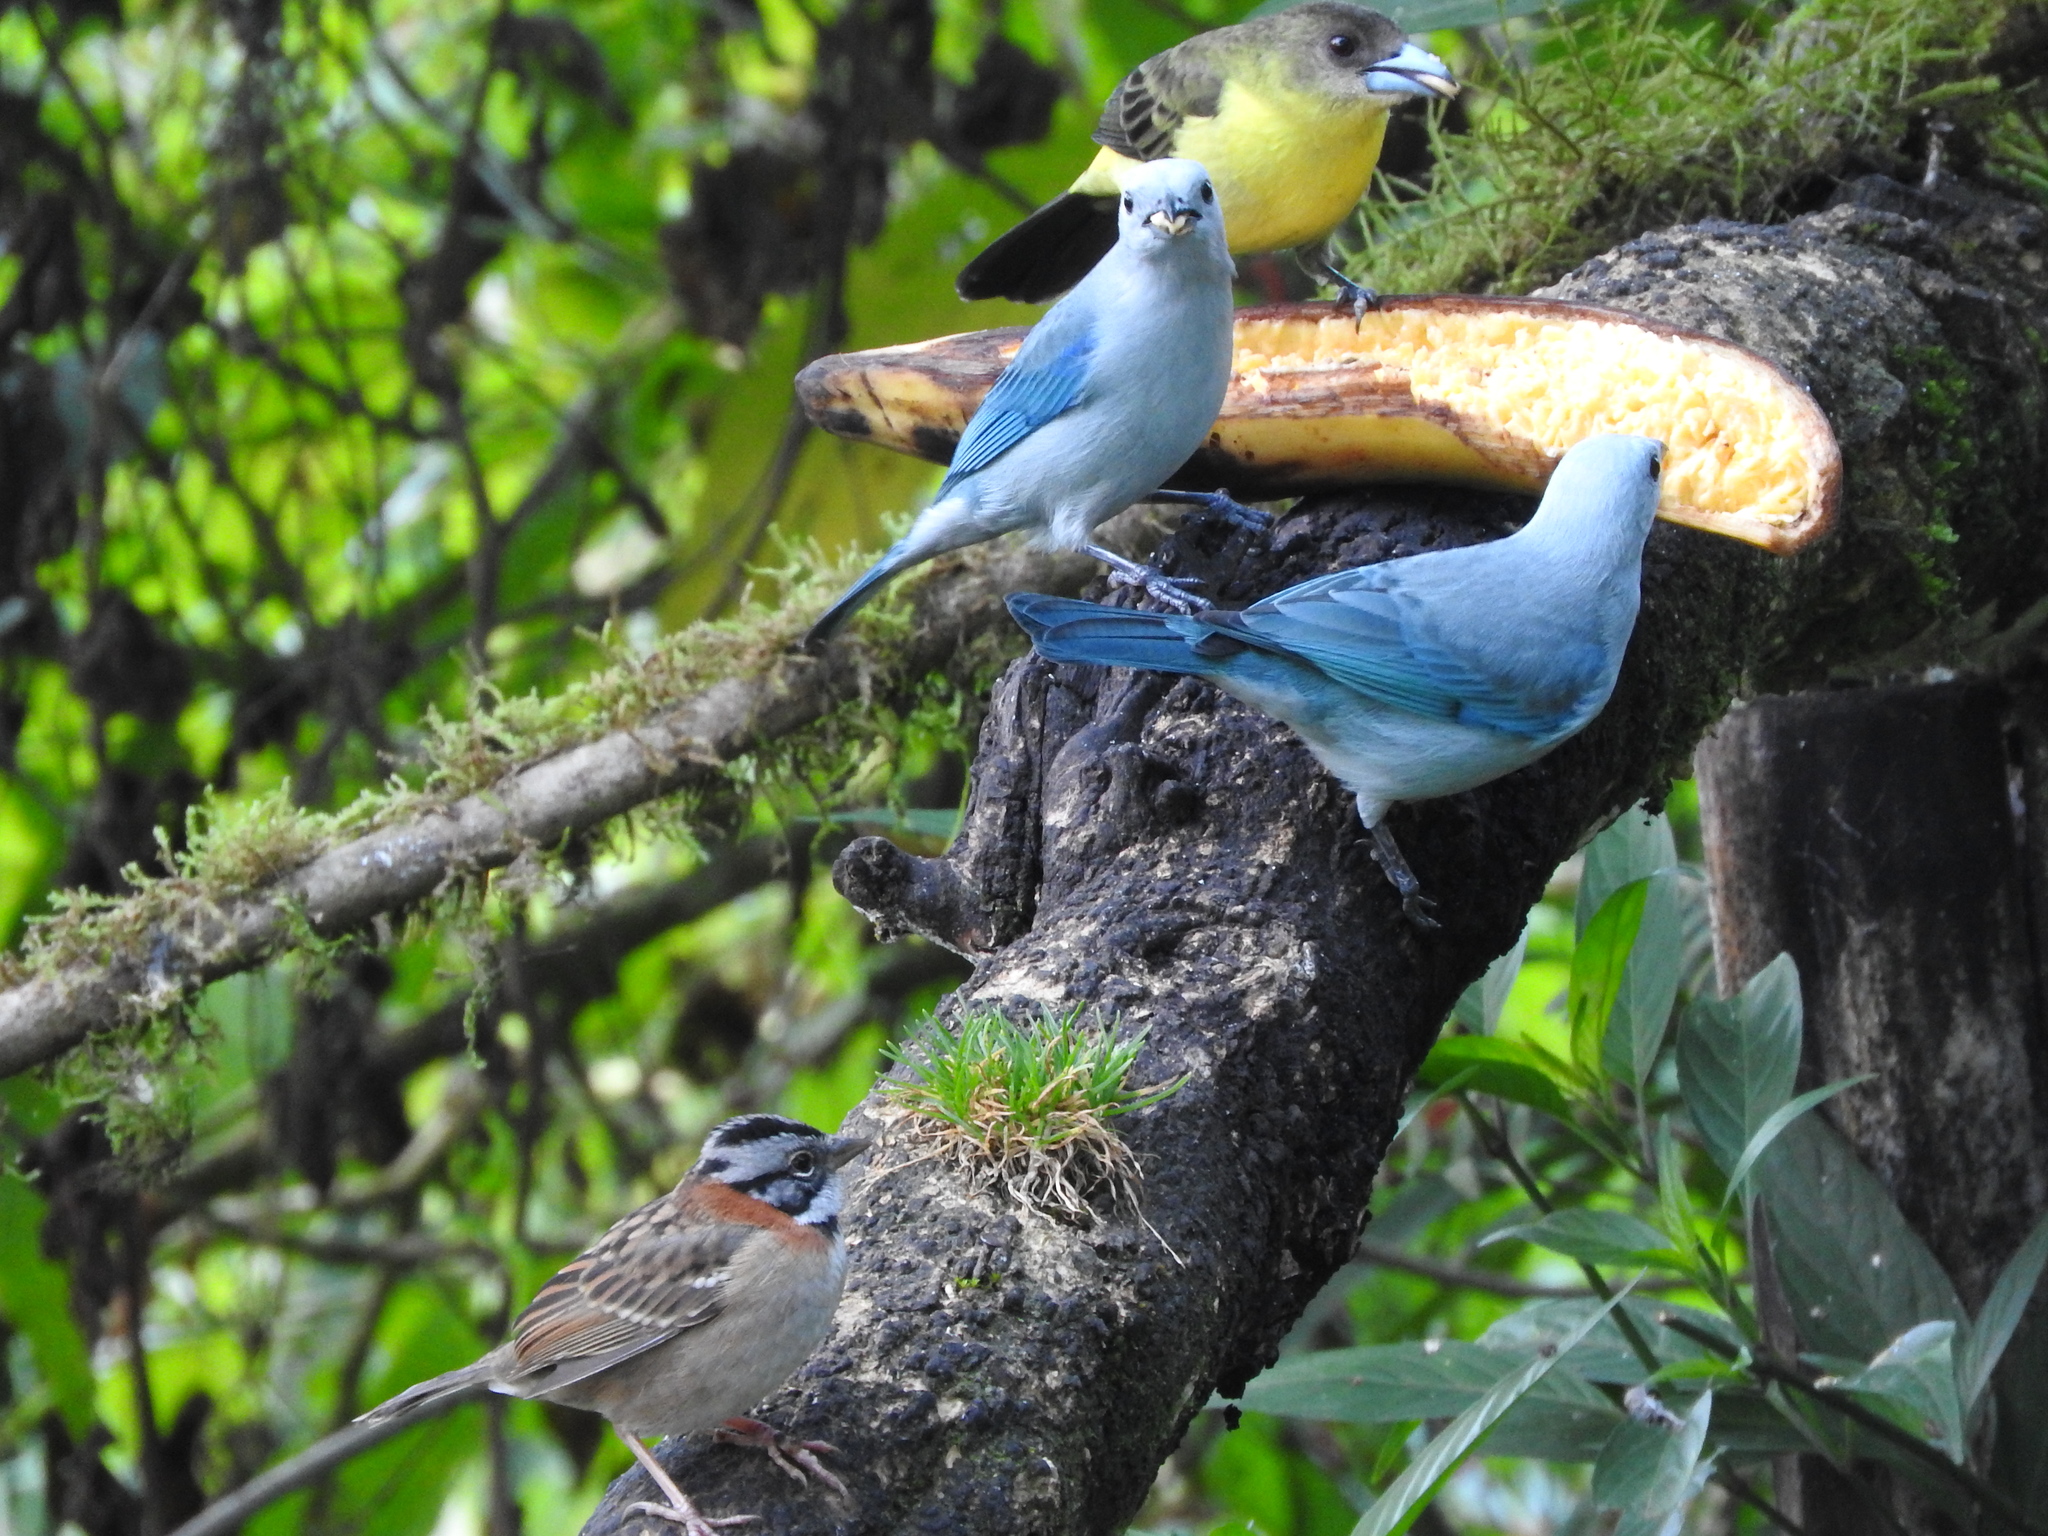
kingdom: Animalia
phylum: Chordata
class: Aves
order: Passeriformes
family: Thraupidae
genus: Thraupis
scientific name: Thraupis episcopus
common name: Blue-grey tanager
